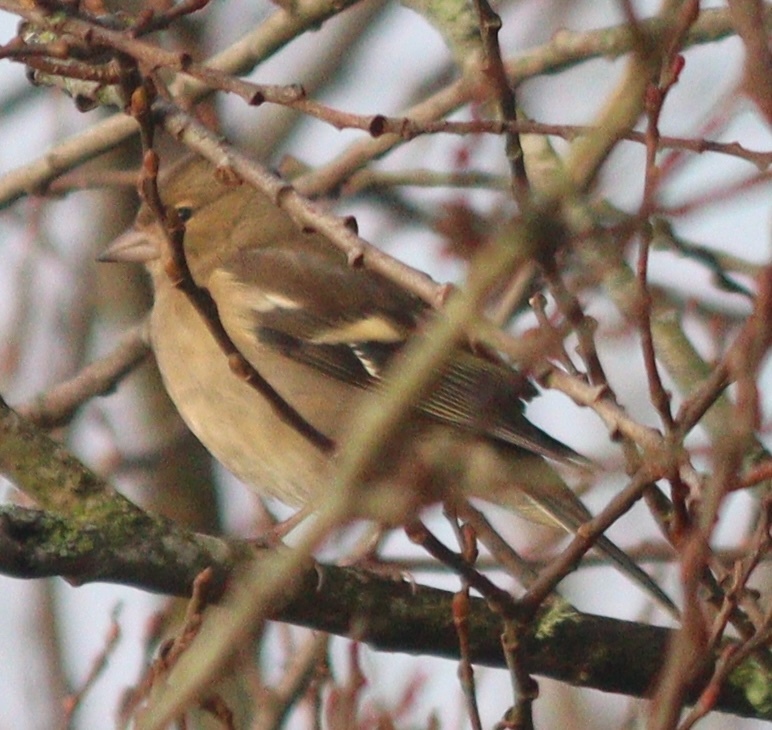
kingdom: Animalia
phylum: Chordata
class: Aves
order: Passeriformes
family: Fringillidae
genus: Fringilla
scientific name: Fringilla coelebs
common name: Common chaffinch
